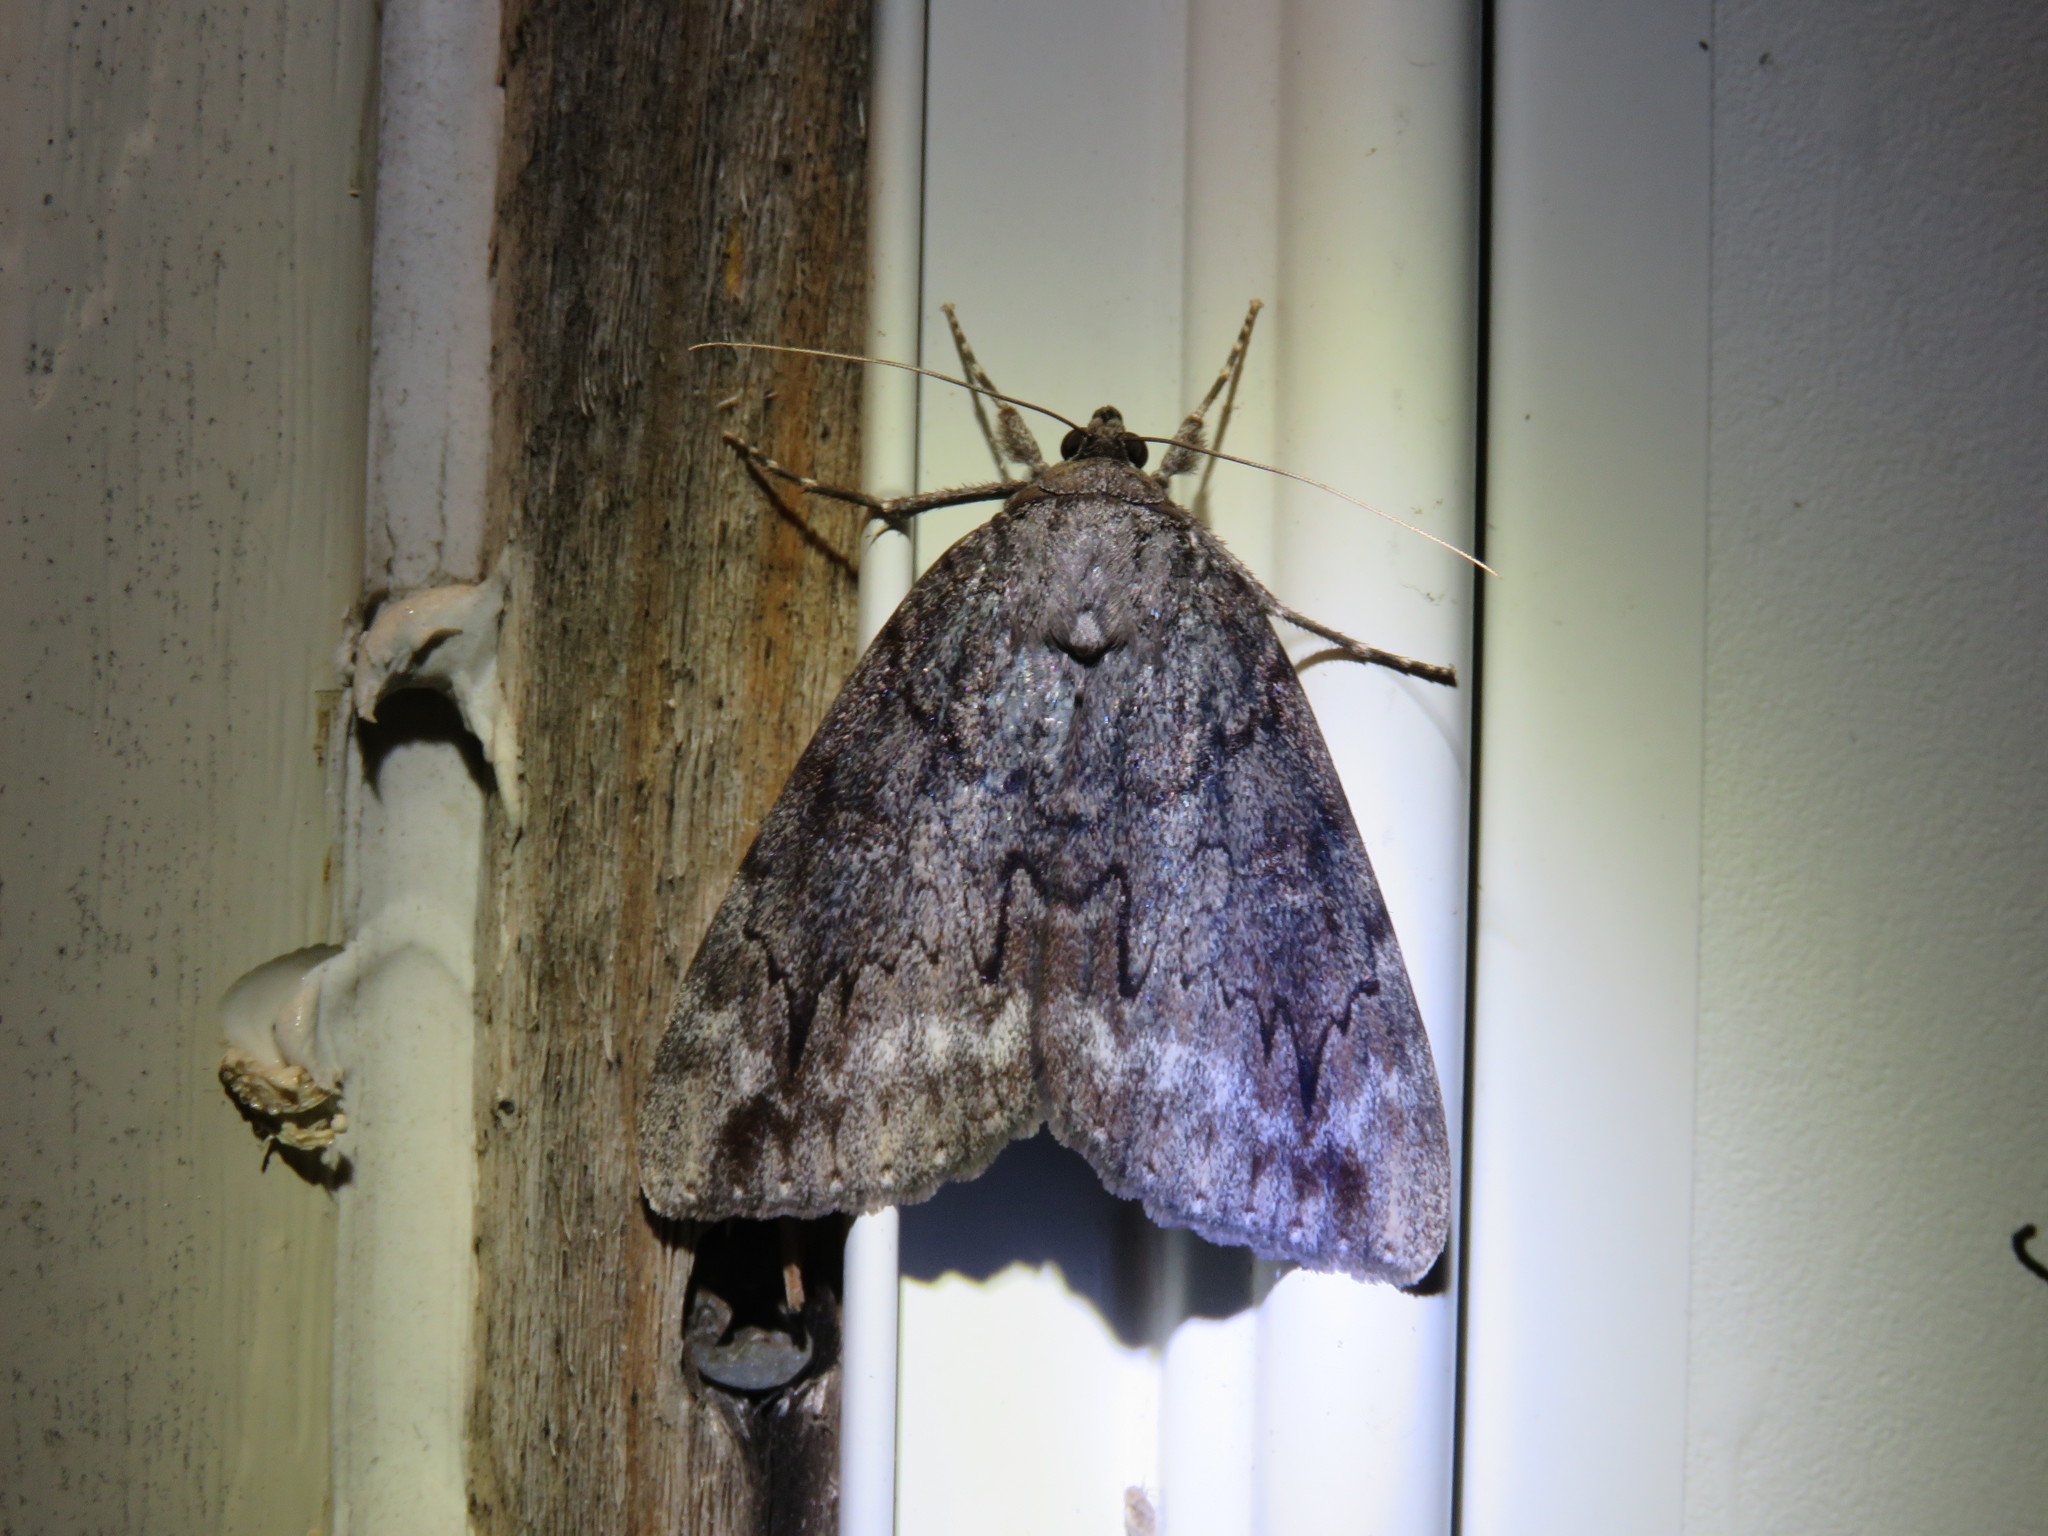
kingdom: Animalia
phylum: Arthropoda
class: Insecta
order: Lepidoptera
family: Erebidae
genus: Catocala
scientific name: Catocala residua
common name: Residua underwing
